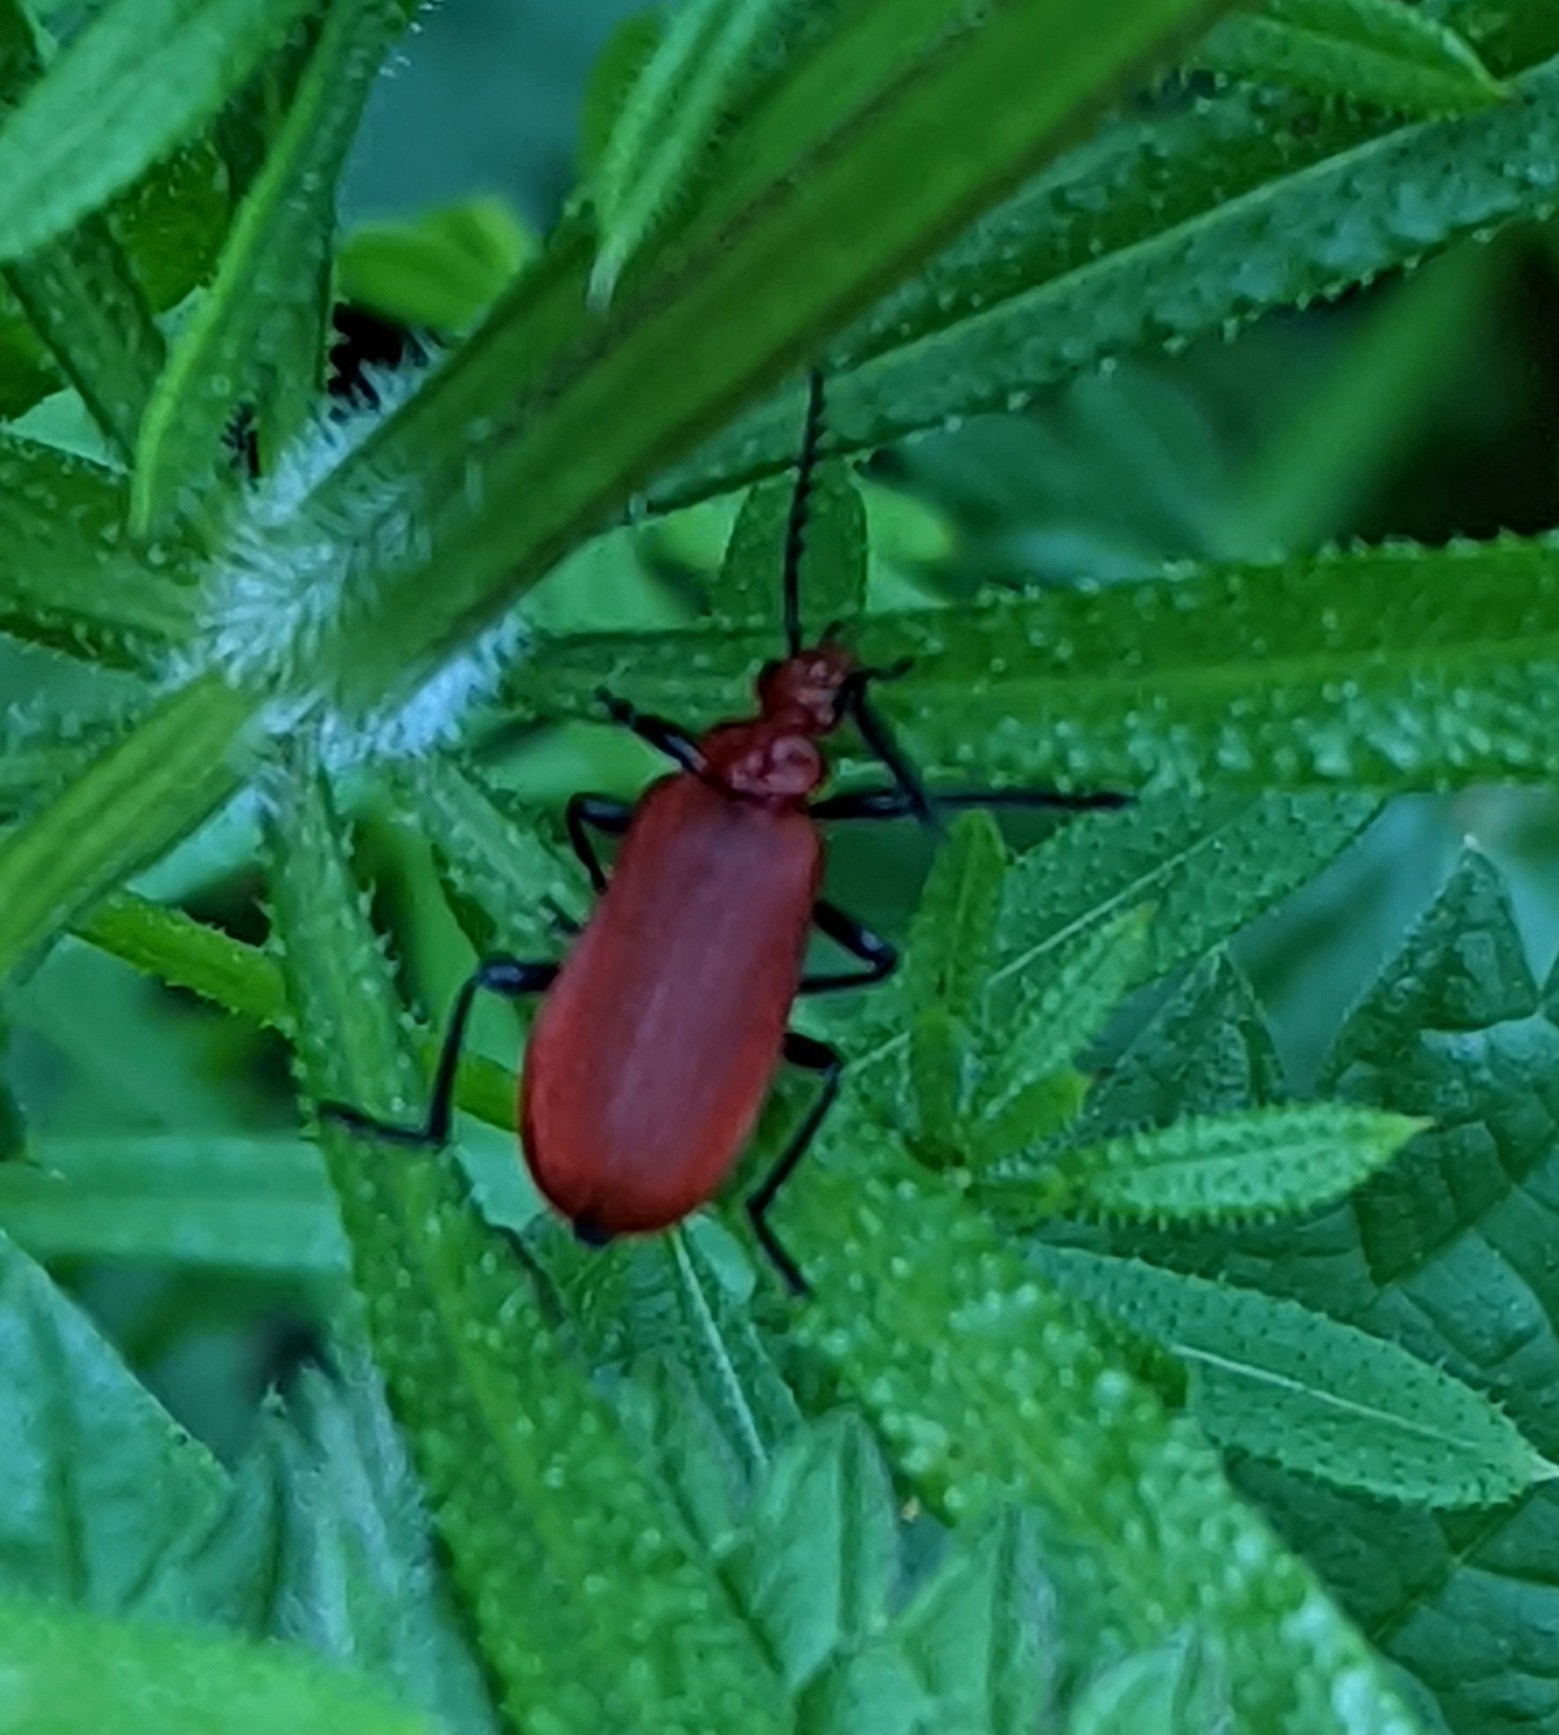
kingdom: Animalia
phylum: Arthropoda
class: Insecta
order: Coleoptera
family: Pyrochroidae
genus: Pyrochroa
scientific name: Pyrochroa serraticornis
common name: Red-headed cardinal beetle
